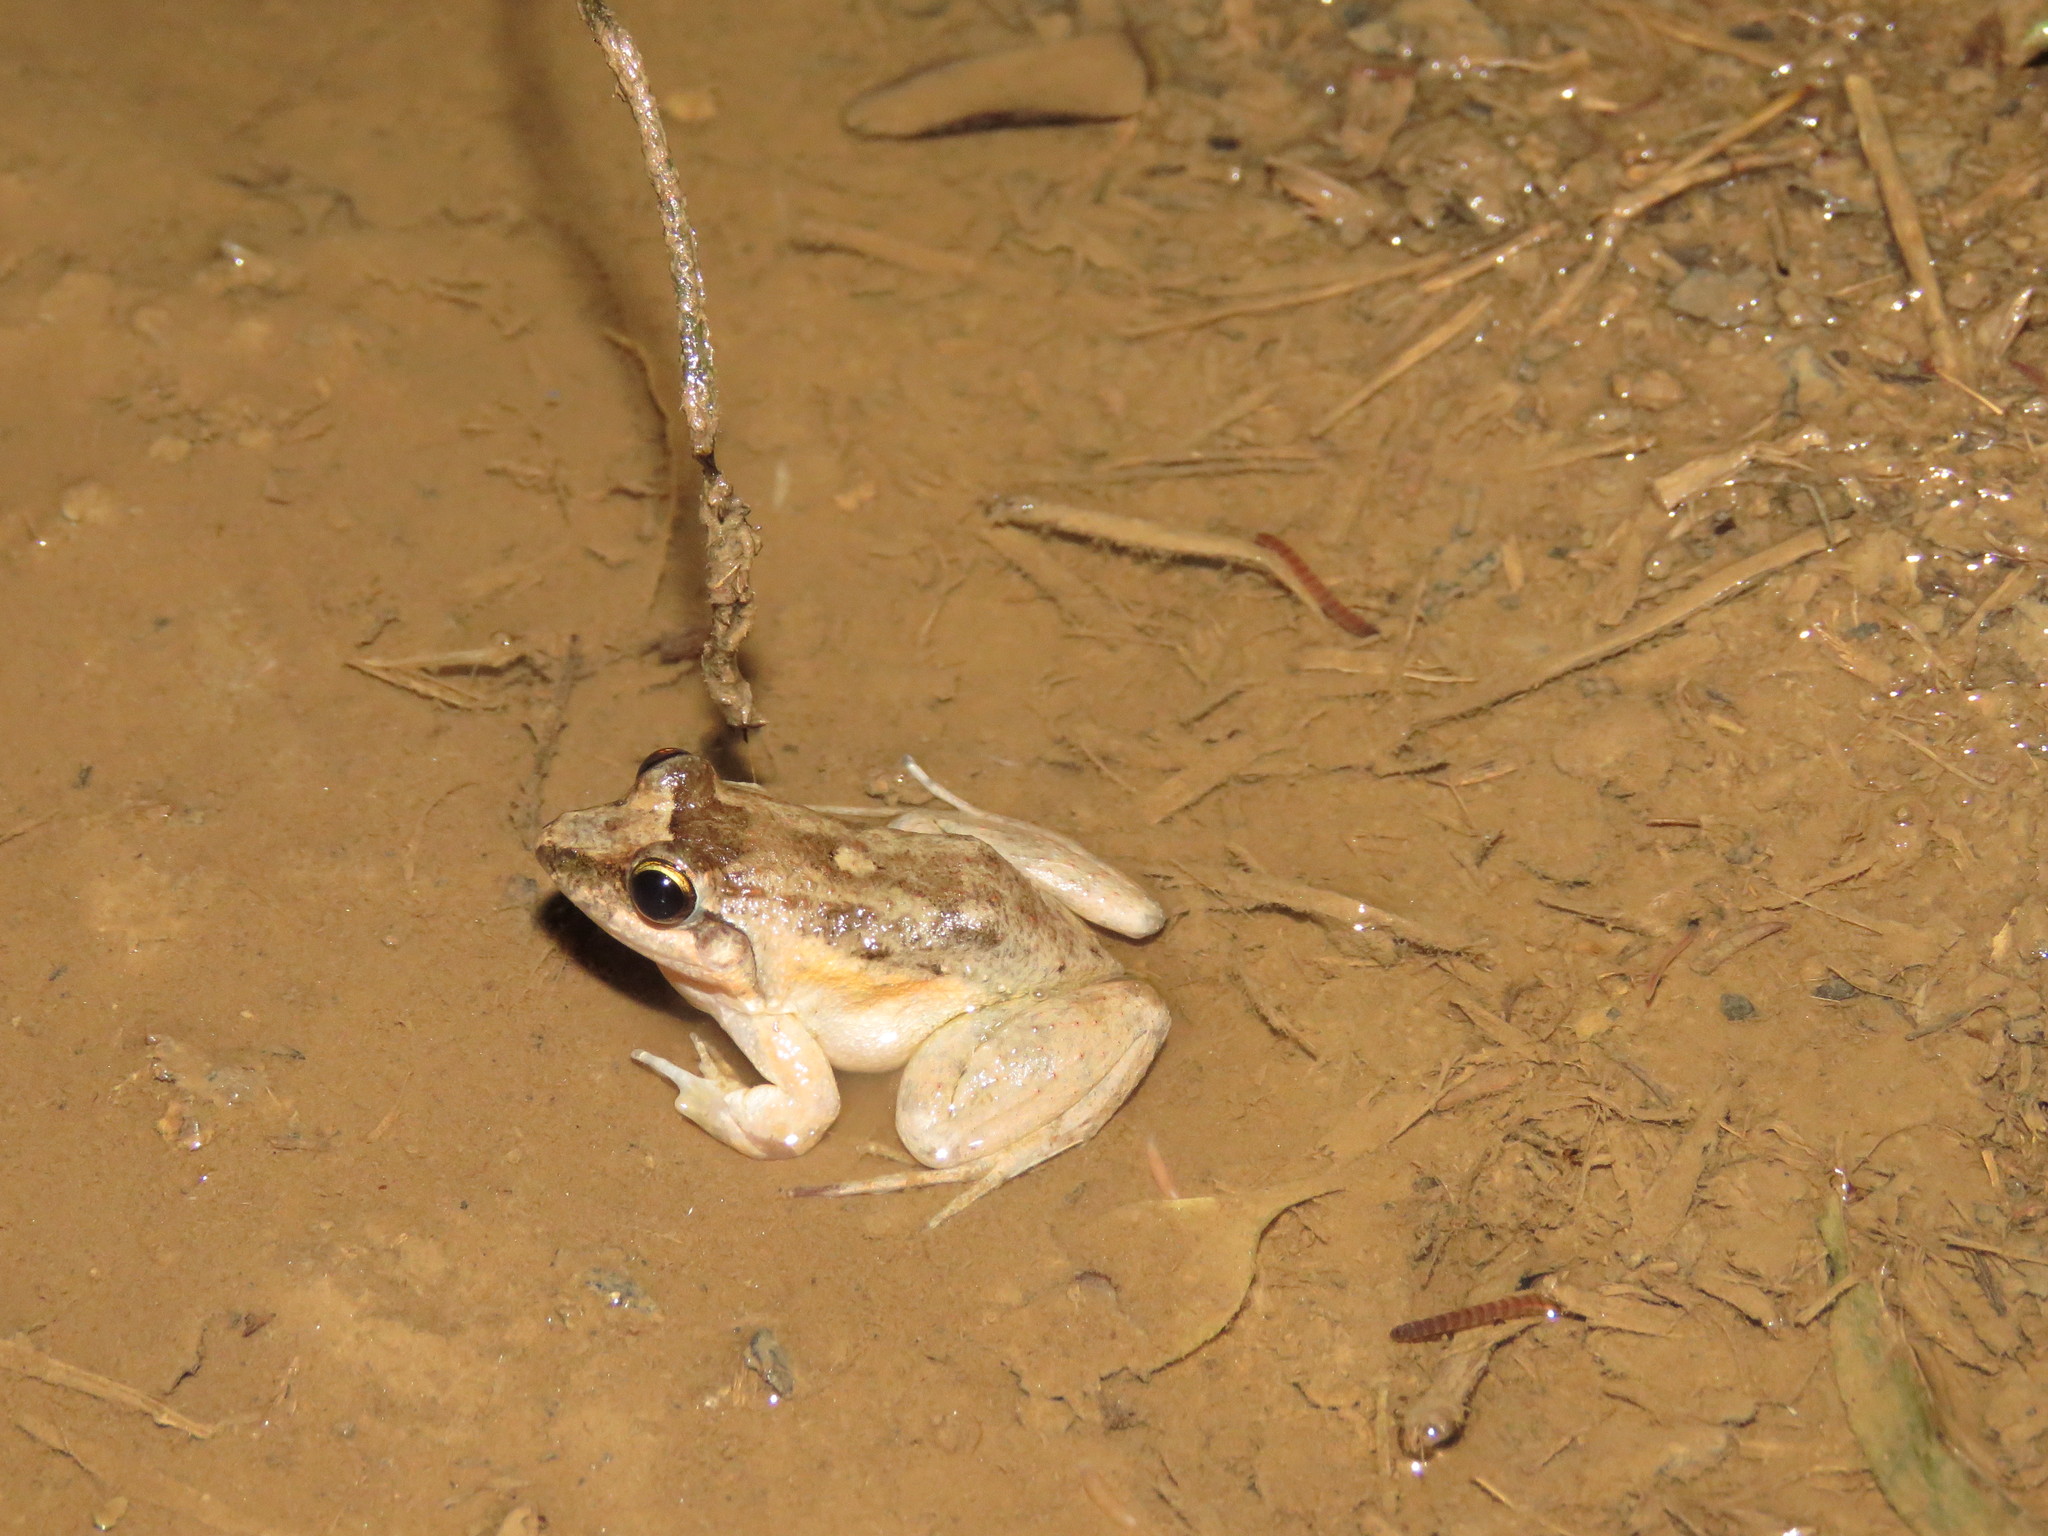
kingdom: Animalia
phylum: Chordata
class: Amphibia
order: Anura
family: Leptodactylidae
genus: Leptodactylus
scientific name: Leptodactylus petersii
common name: Peters' thin-toed frog
